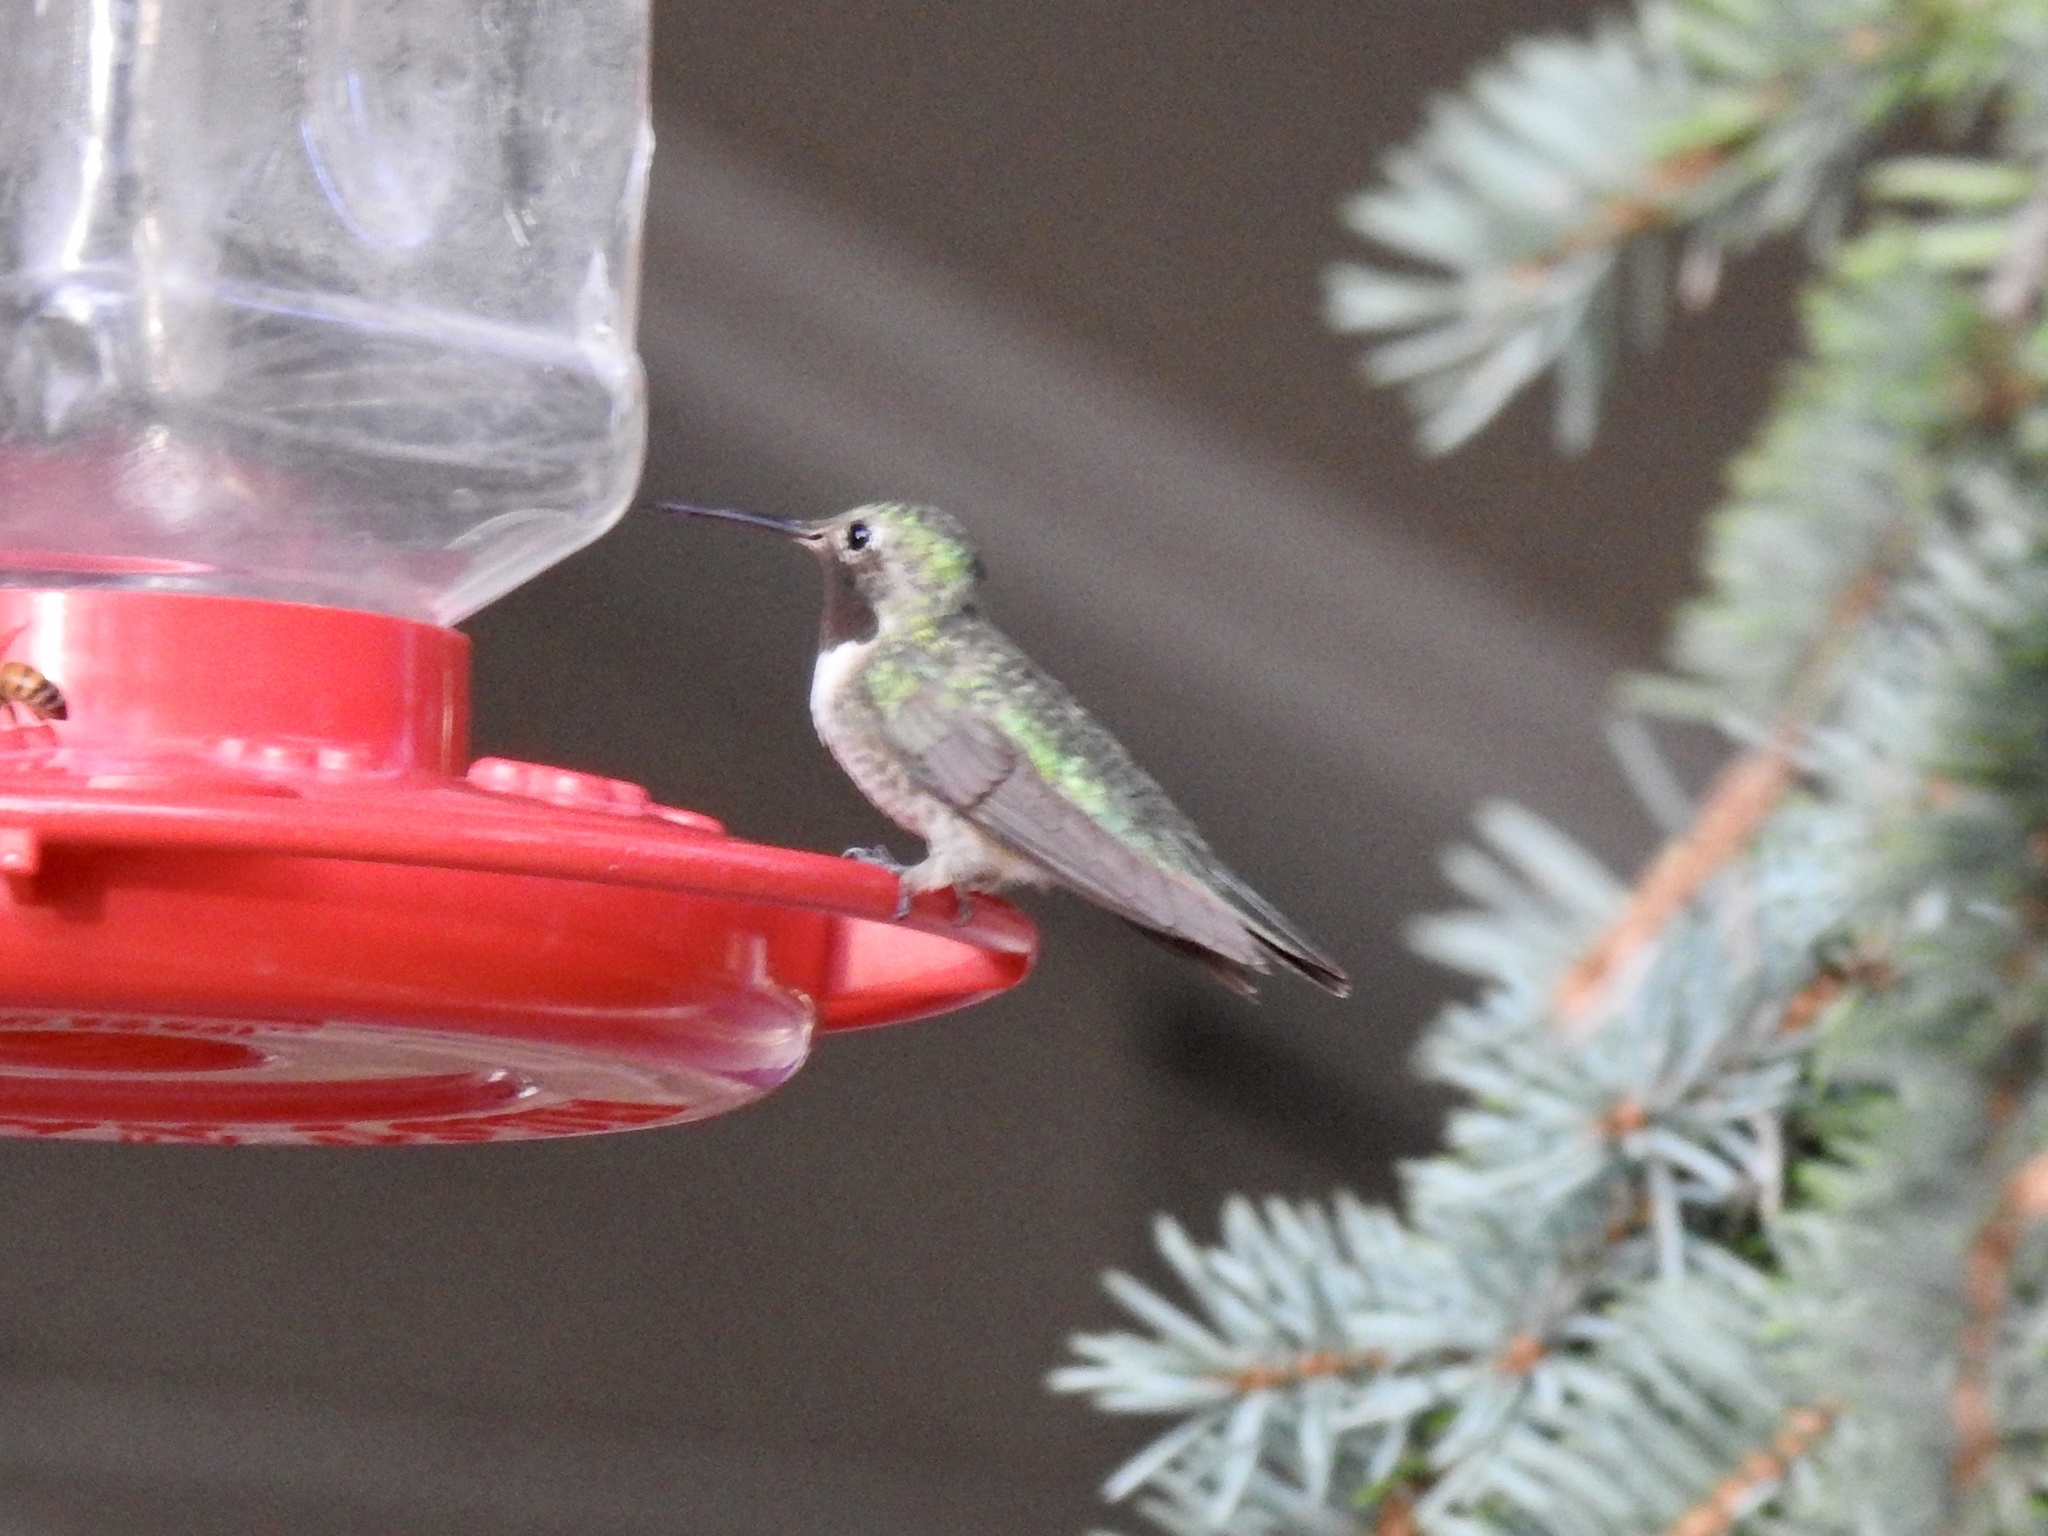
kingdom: Animalia
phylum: Chordata
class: Aves
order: Apodiformes
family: Trochilidae
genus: Selasphorus
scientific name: Selasphorus platycercus
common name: Broad-tailed hummingbird
